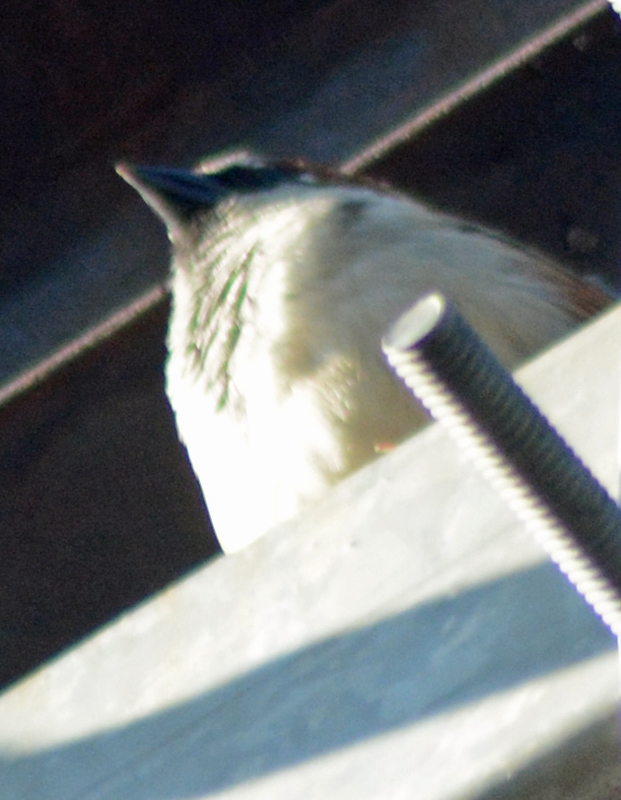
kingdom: Animalia
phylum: Chordata
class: Aves
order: Passeriformes
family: Passeridae
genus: Passer
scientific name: Passer domesticus
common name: House sparrow
